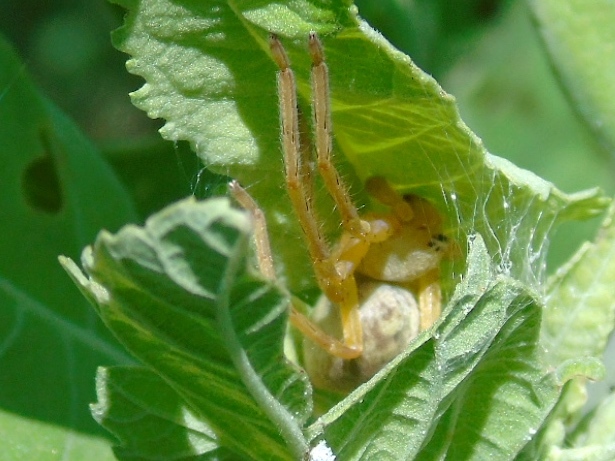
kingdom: Animalia
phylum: Arthropoda
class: Arachnida
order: Araneae
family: Sparassidae
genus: Curicaberis
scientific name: Curicaberis
